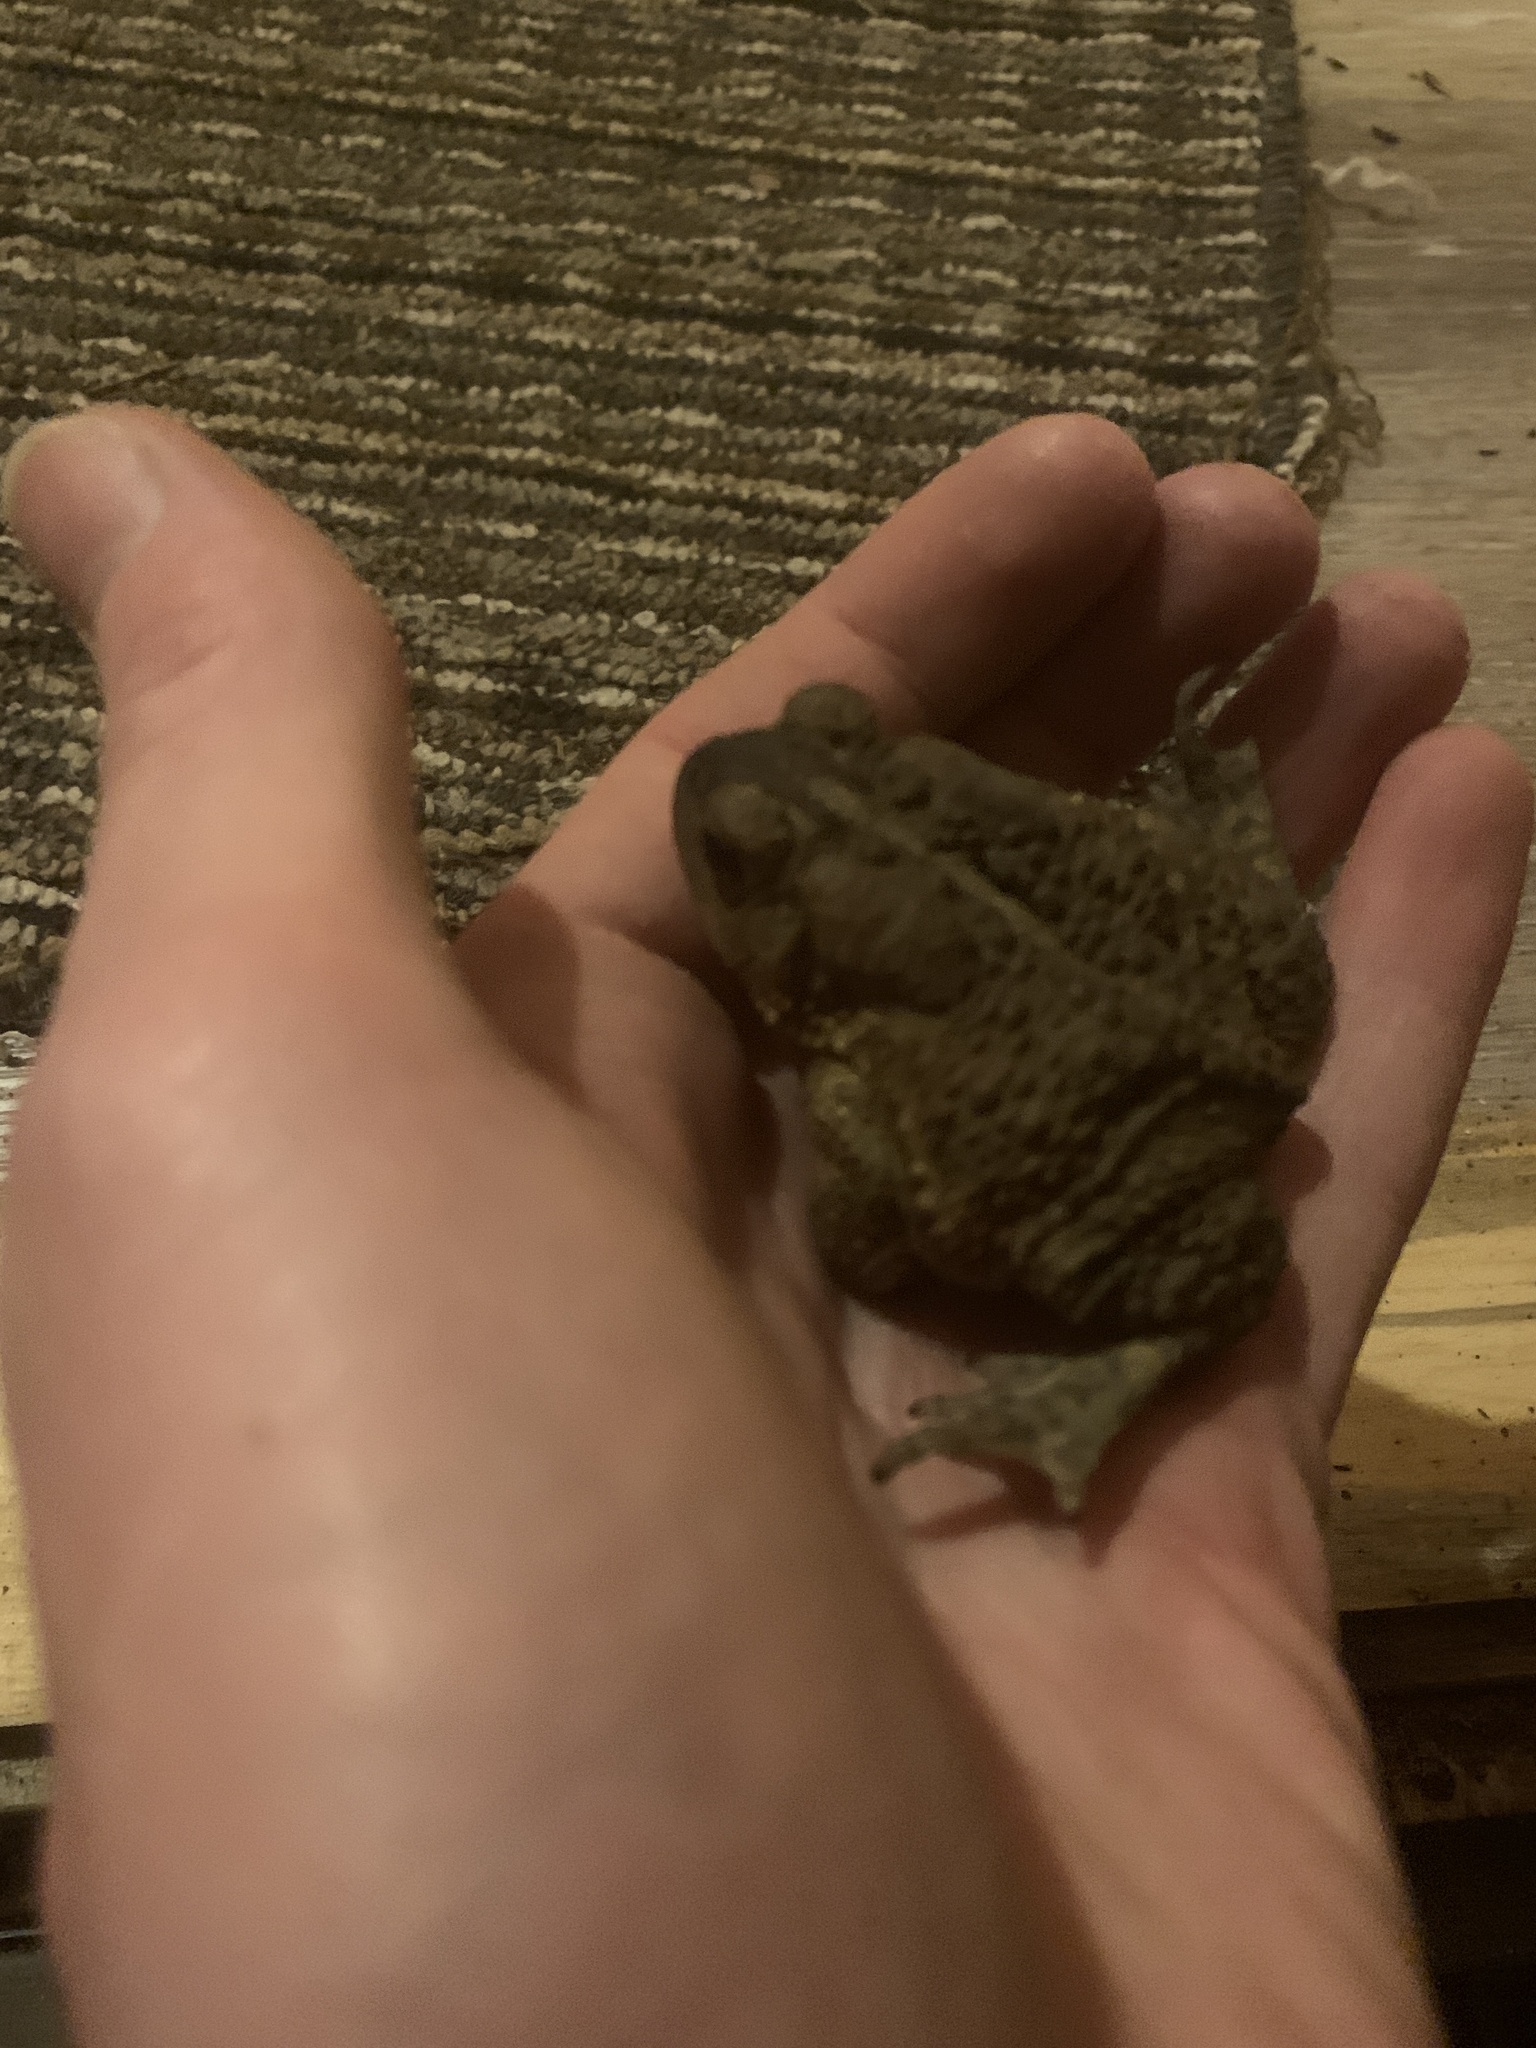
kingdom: Animalia
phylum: Chordata
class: Amphibia
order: Anura
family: Bufonidae
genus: Anaxyrus
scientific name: Anaxyrus americanus
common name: American toad
